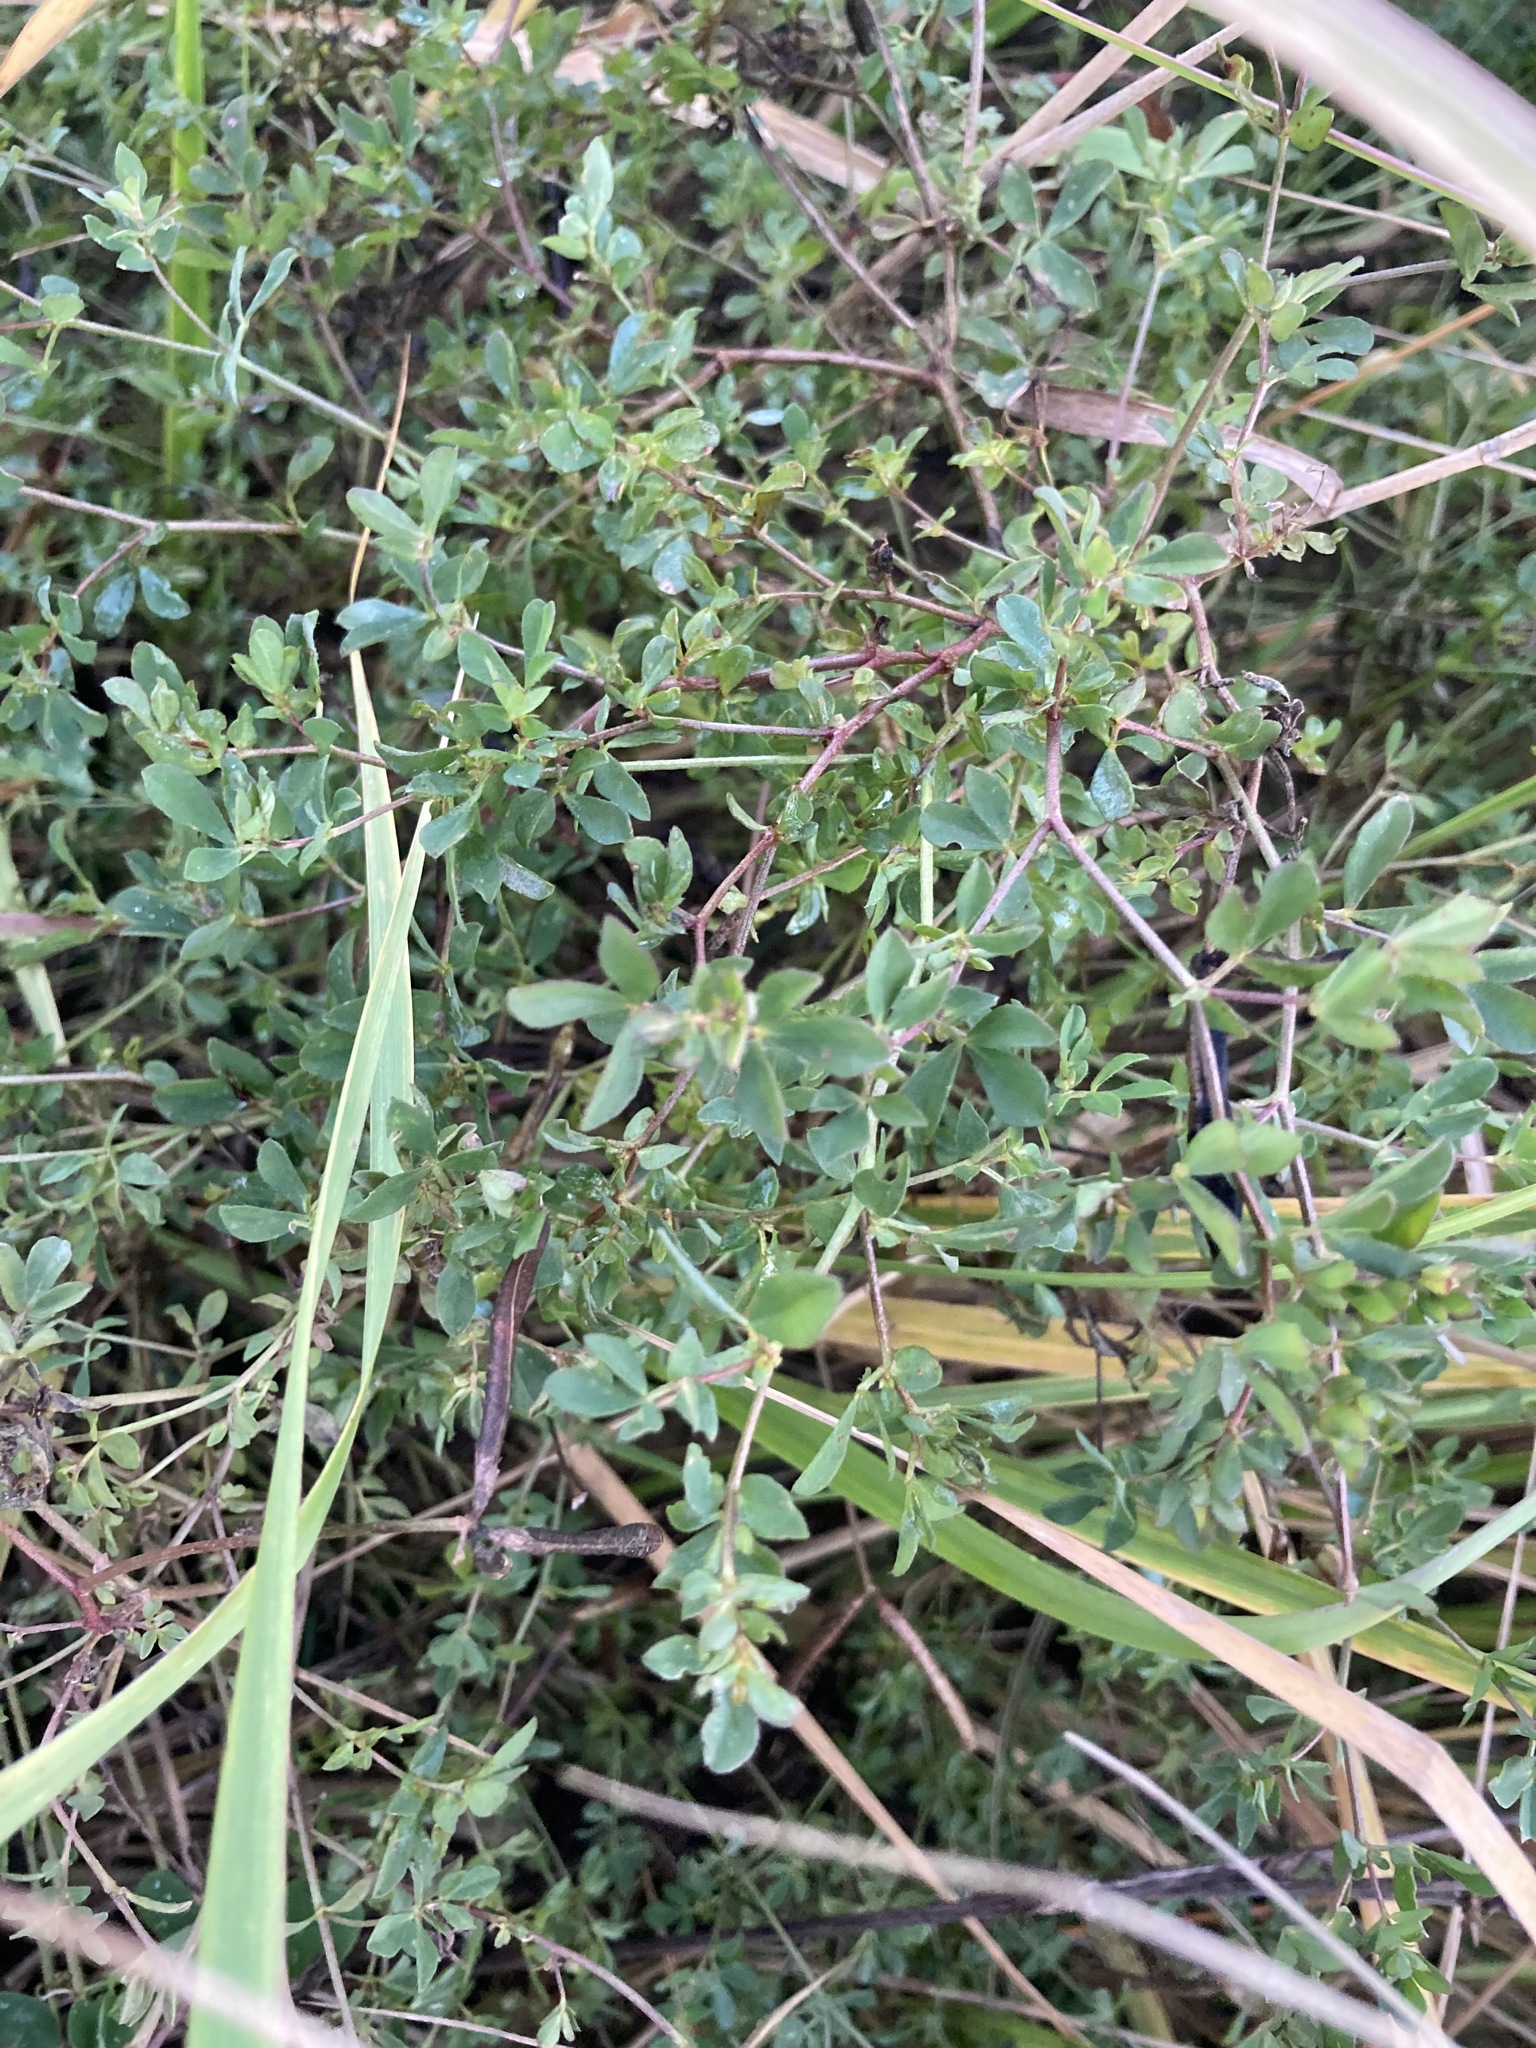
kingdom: Plantae
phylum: Tracheophyta
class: Magnoliopsida
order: Fabales
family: Fabaceae
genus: Lotus
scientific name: Lotus corniculatus
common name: Common bird's-foot-trefoil
